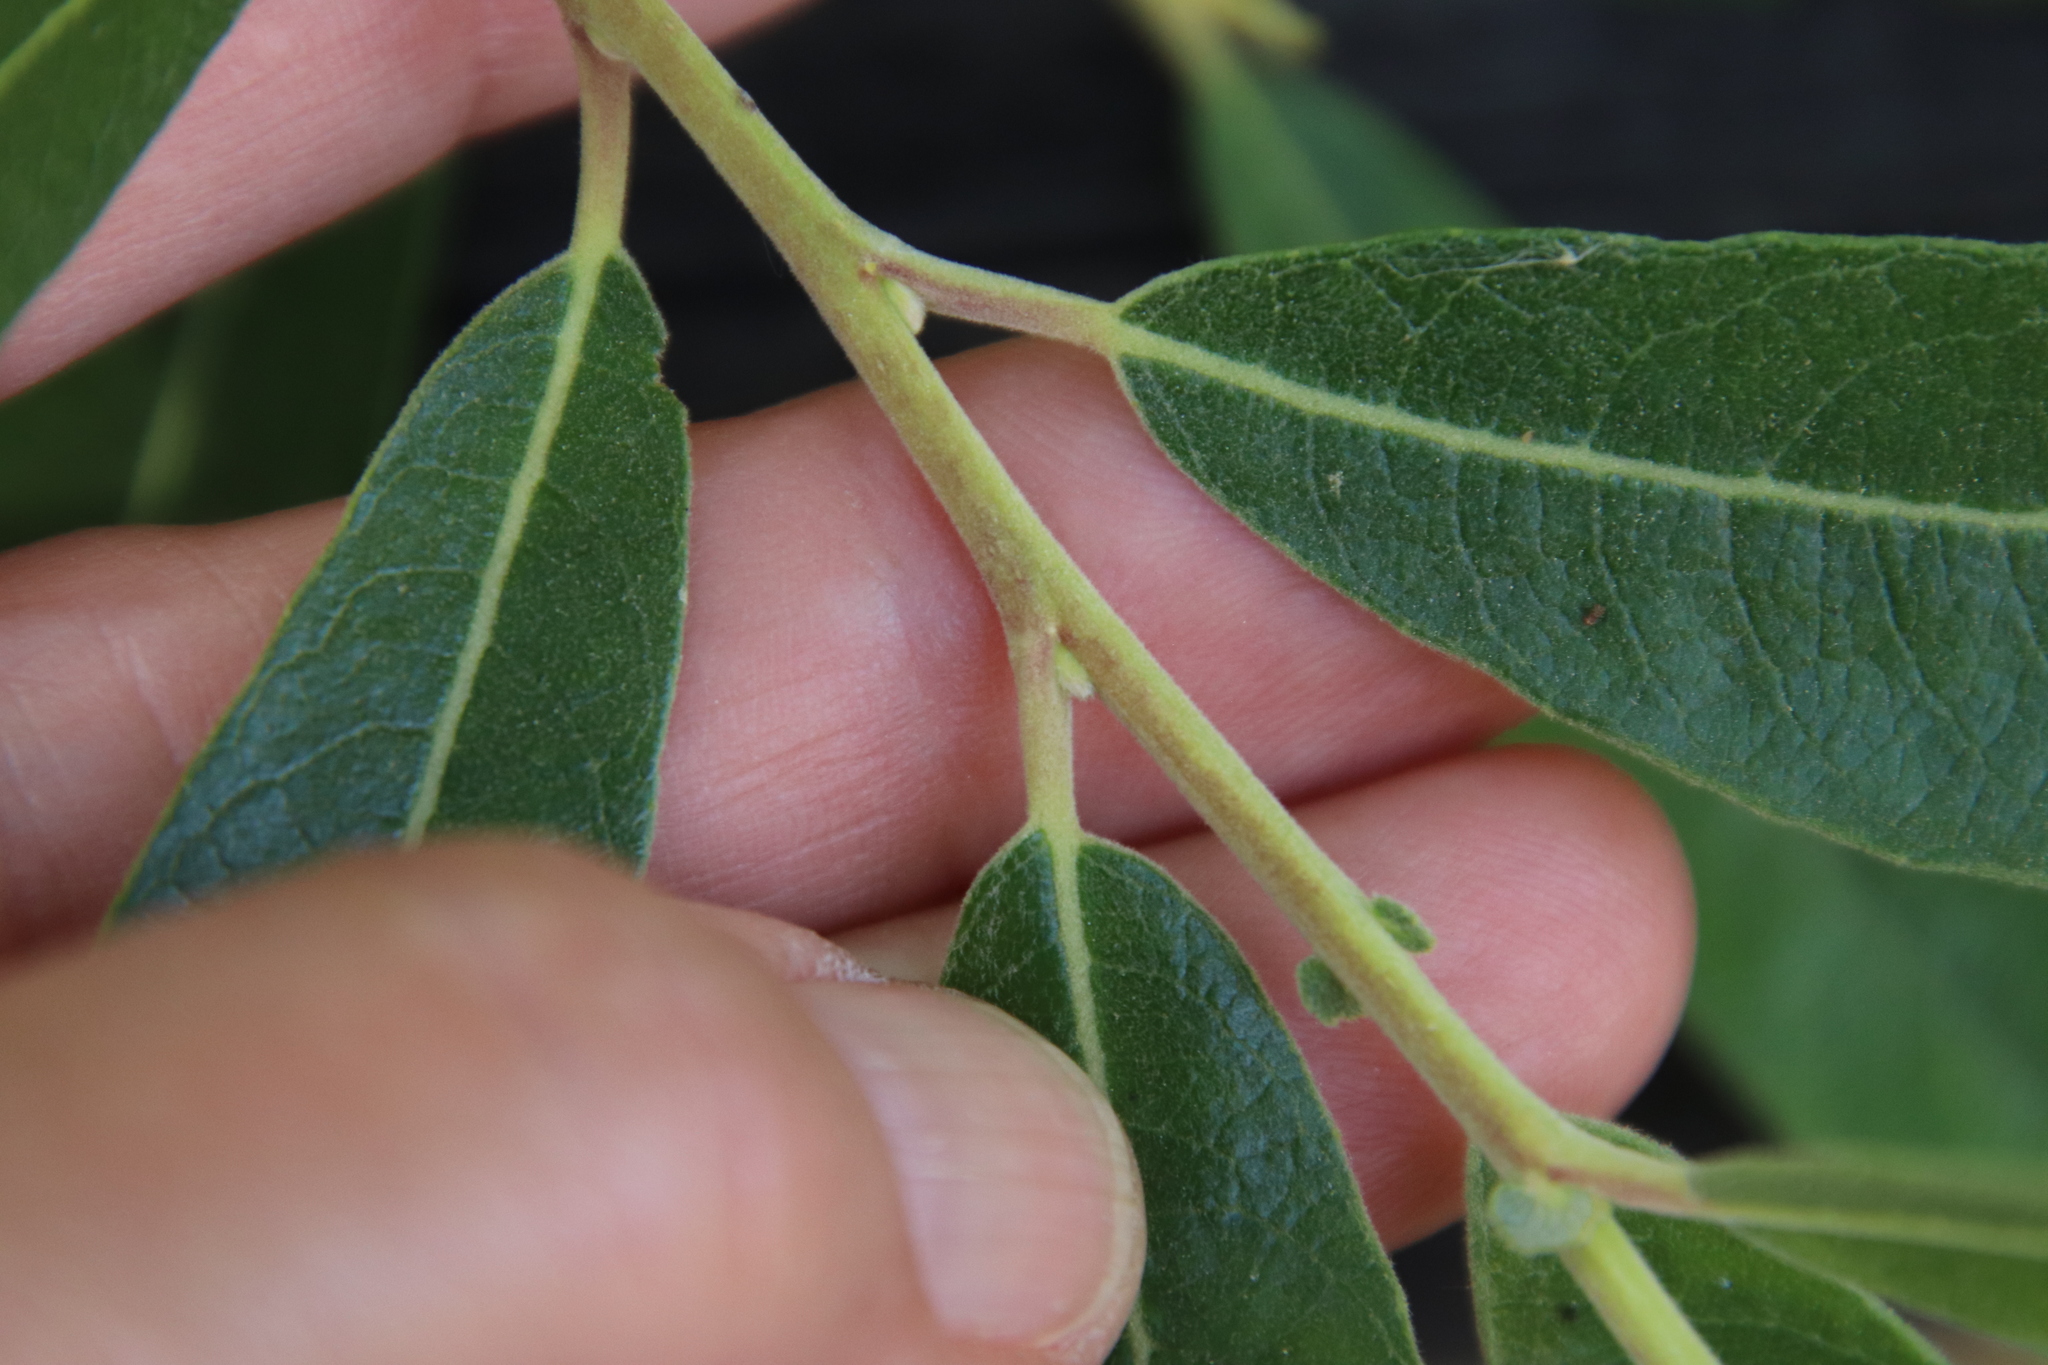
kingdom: Plantae
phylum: Tracheophyta
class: Magnoliopsida
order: Malpighiales
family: Salicaceae
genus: Salix
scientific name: Salix lasiolepis
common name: Arroyo willow
